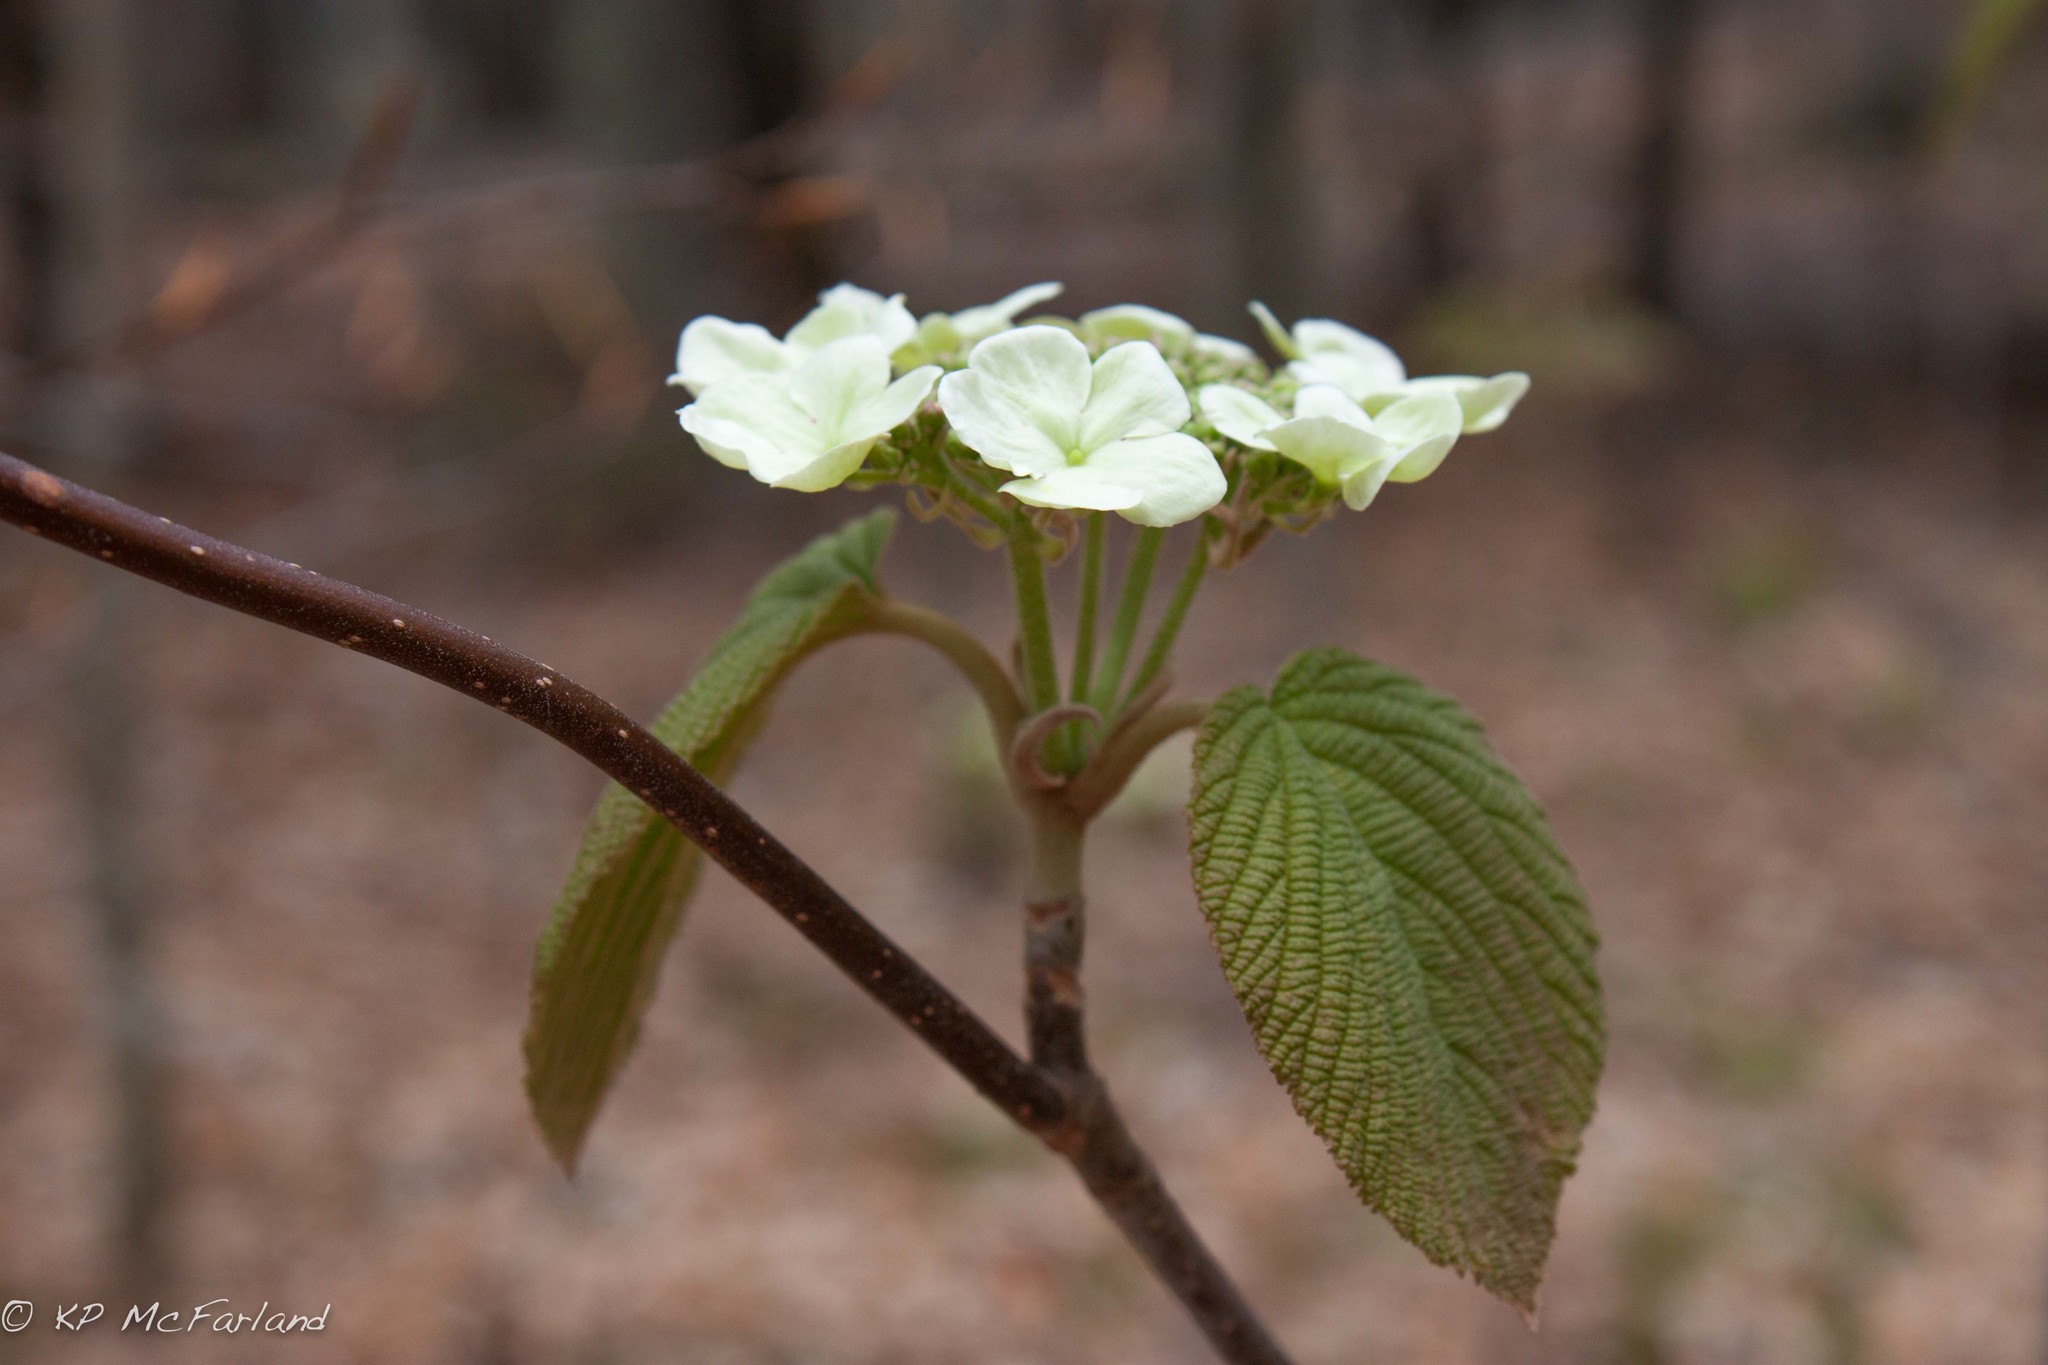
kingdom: Plantae
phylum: Tracheophyta
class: Magnoliopsida
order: Dipsacales
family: Viburnaceae
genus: Viburnum
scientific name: Viburnum lantanoides
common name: Hobblebush
